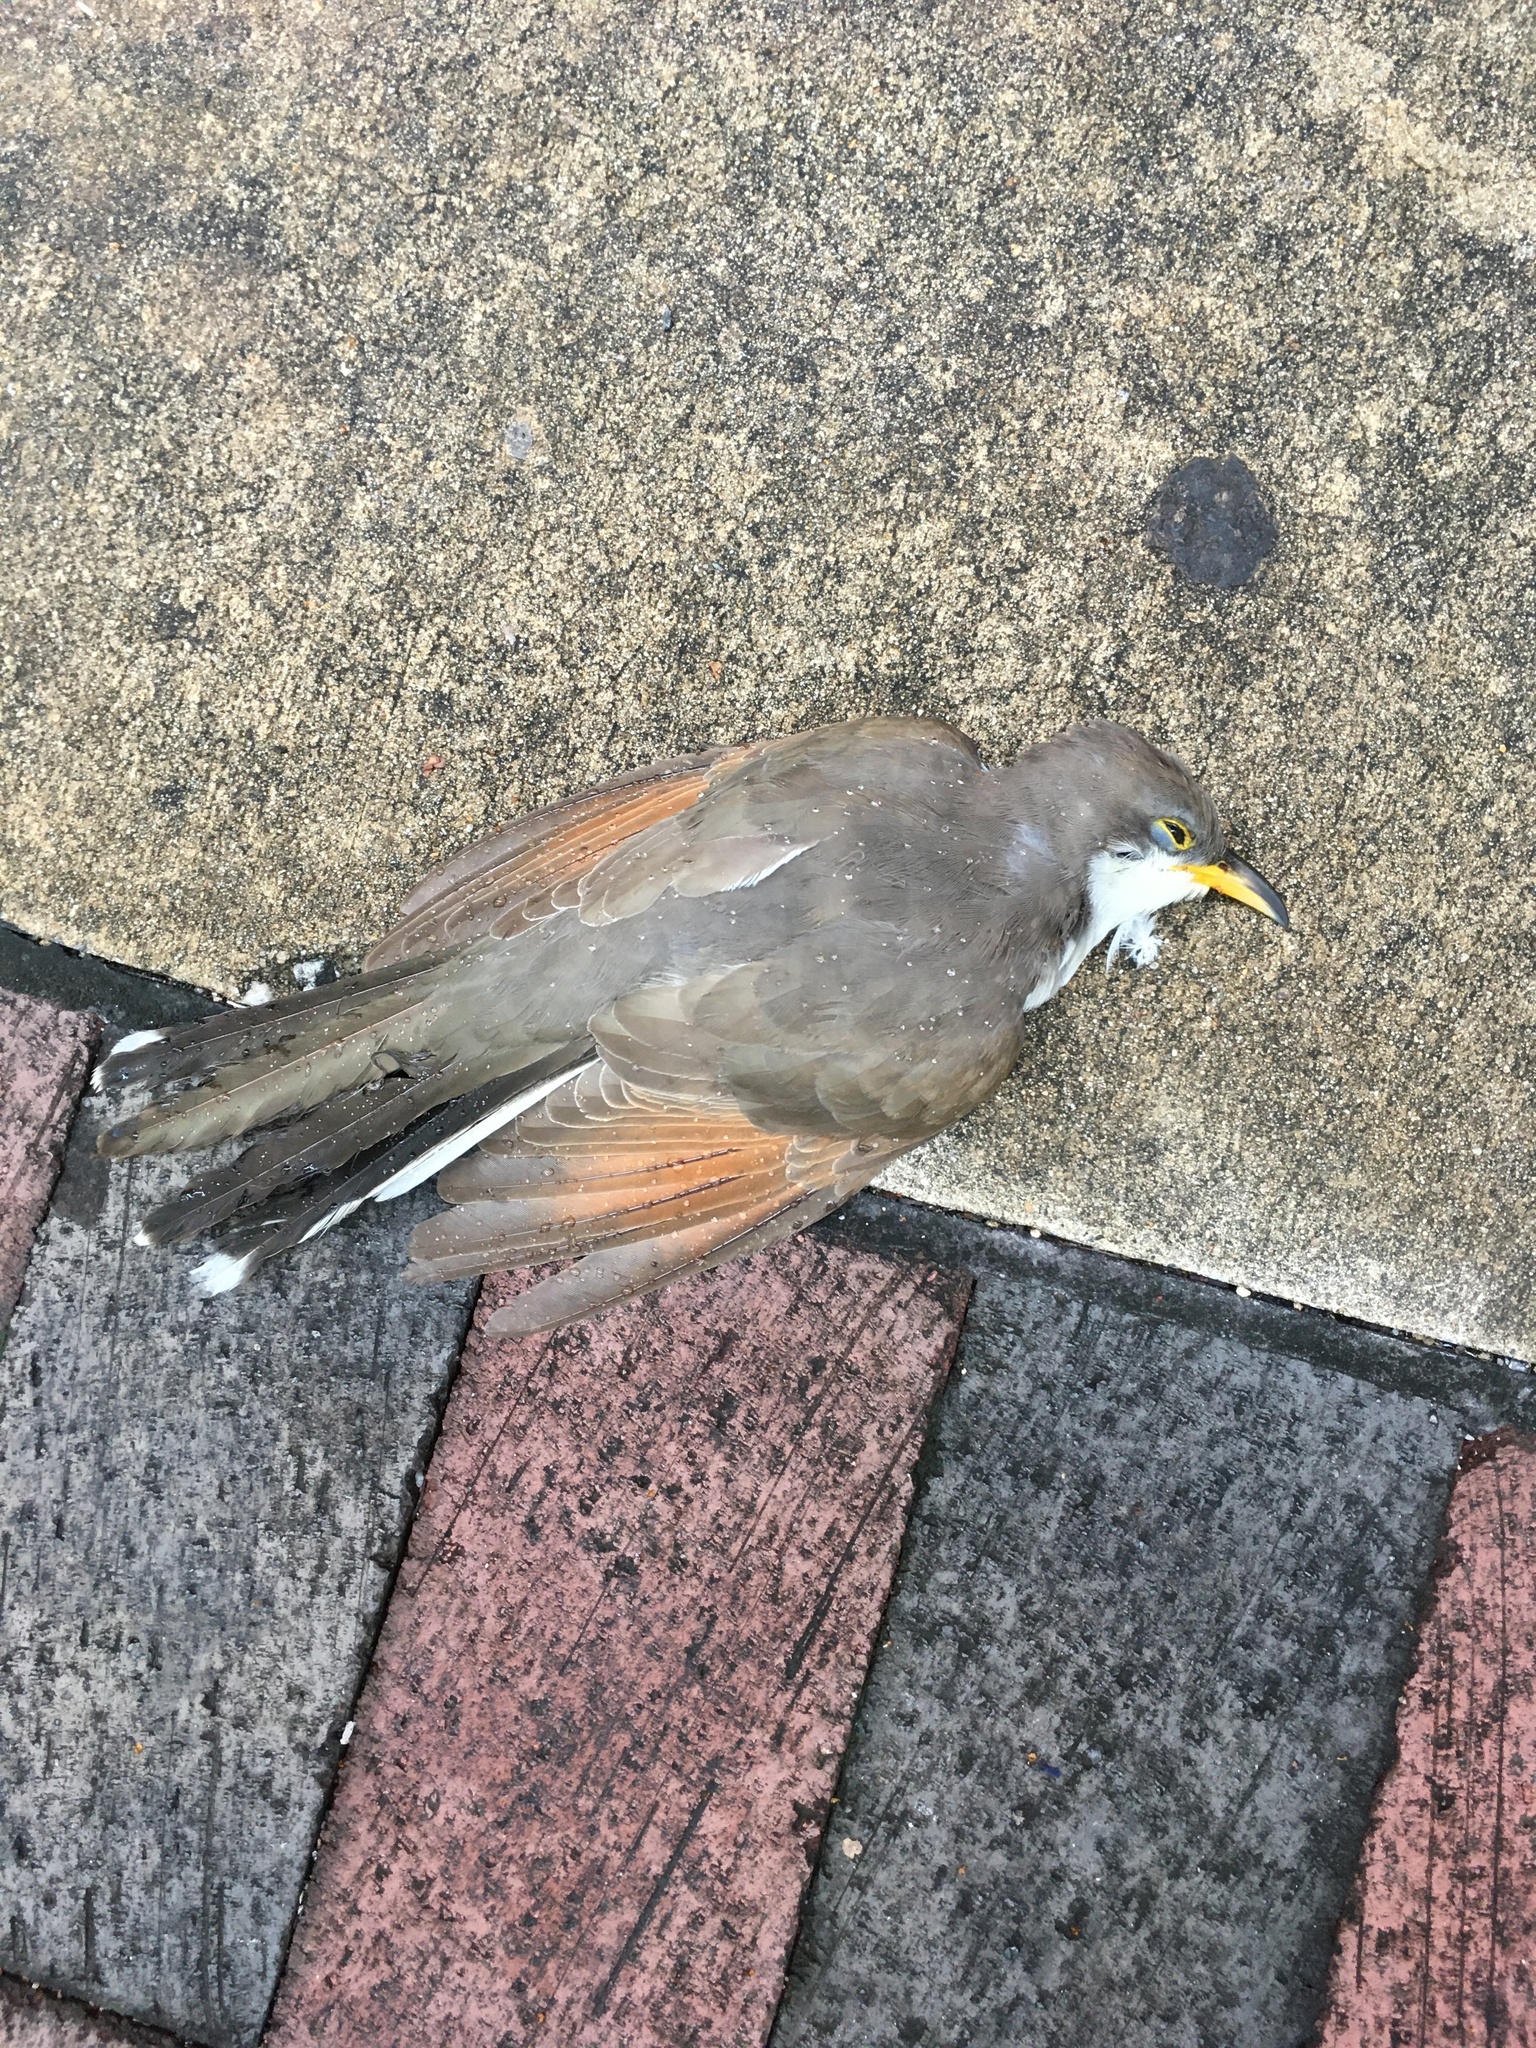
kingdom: Animalia
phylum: Chordata
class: Aves
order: Cuculiformes
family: Cuculidae
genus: Coccyzus
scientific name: Coccyzus americanus
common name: Yellow-billed cuckoo
